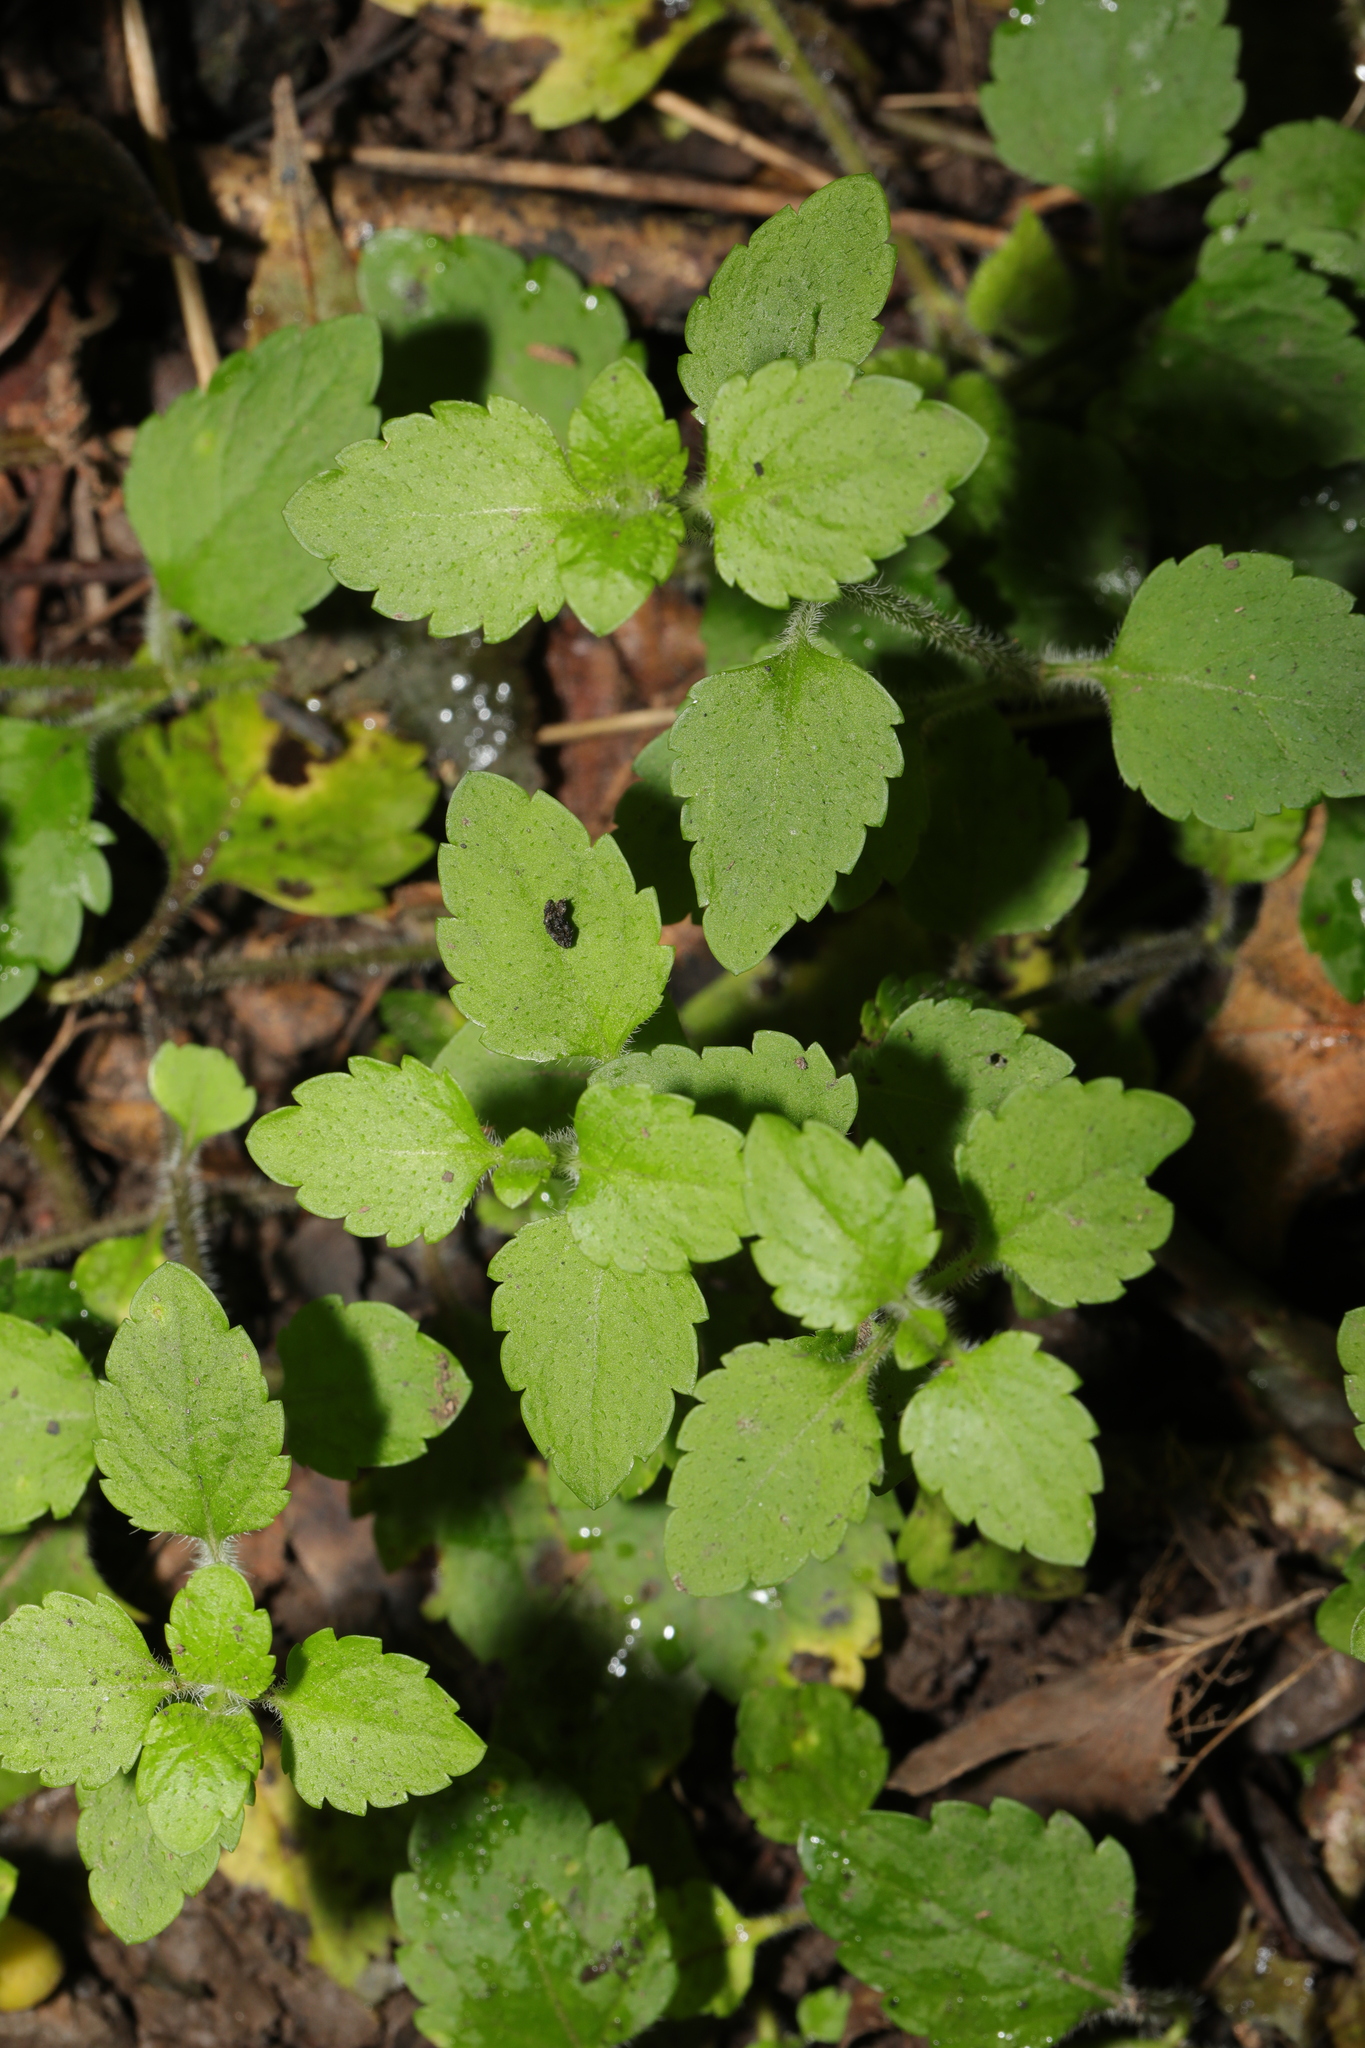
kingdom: Plantae
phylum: Tracheophyta
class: Magnoliopsida
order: Lamiales
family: Plantaginaceae
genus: Veronica
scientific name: Veronica montana
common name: Wood speedwell
